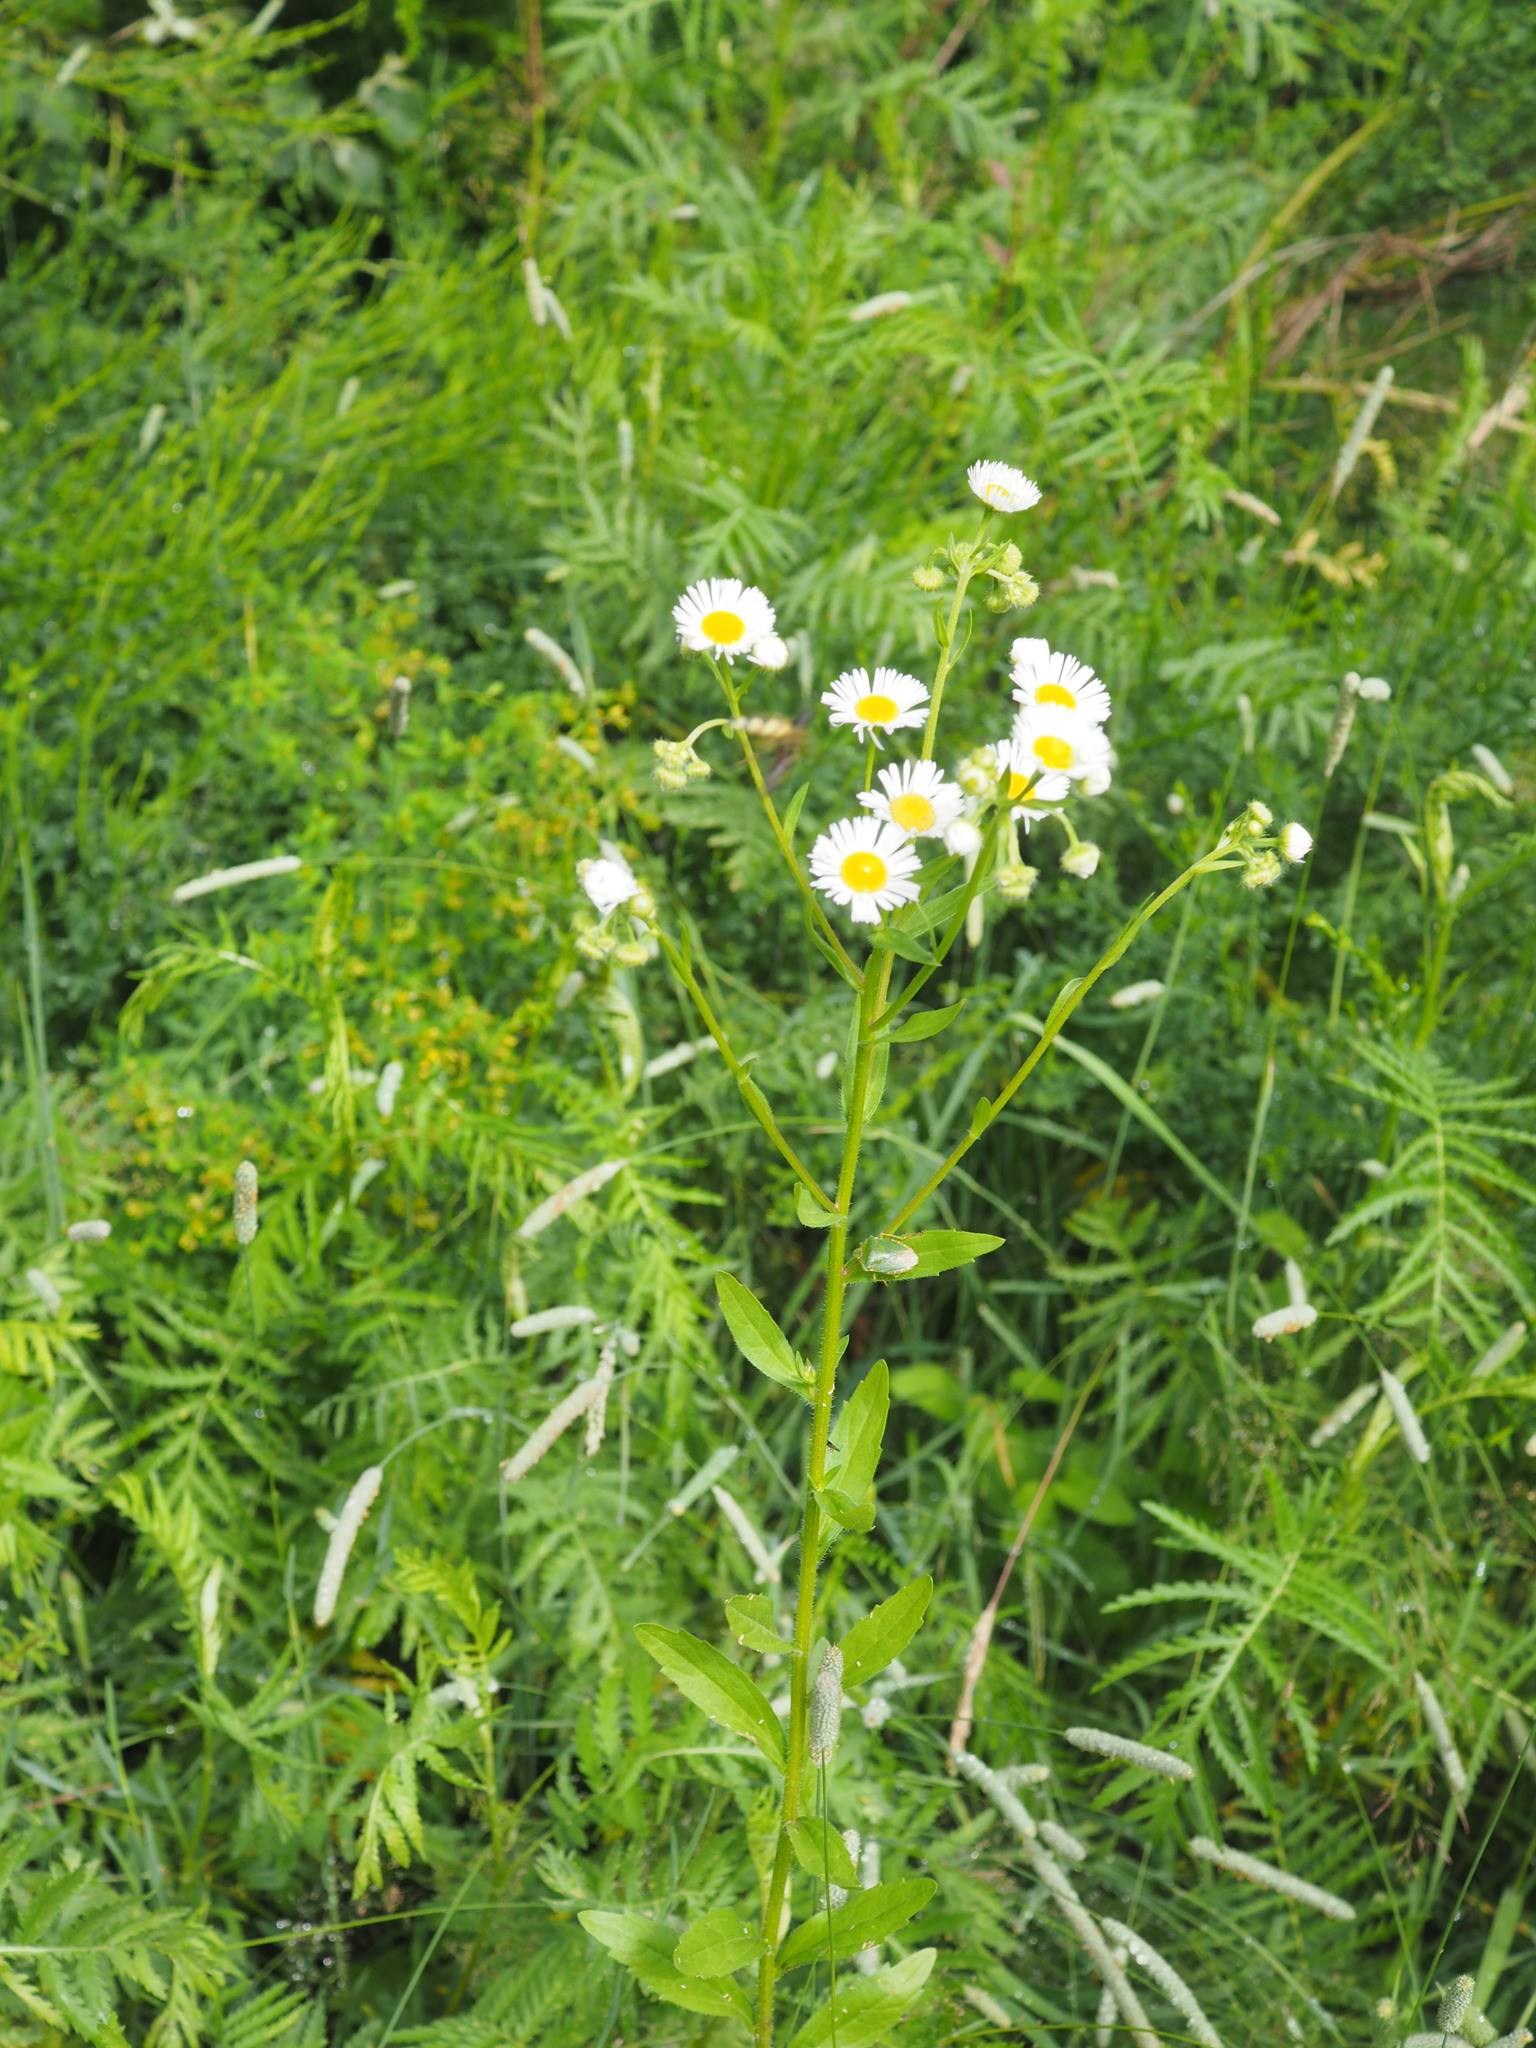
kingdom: Plantae
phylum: Tracheophyta
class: Magnoliopsida
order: Asterales
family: Asteraceae
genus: Erigeron
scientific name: Erigeron annuus
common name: Tall fleabane
